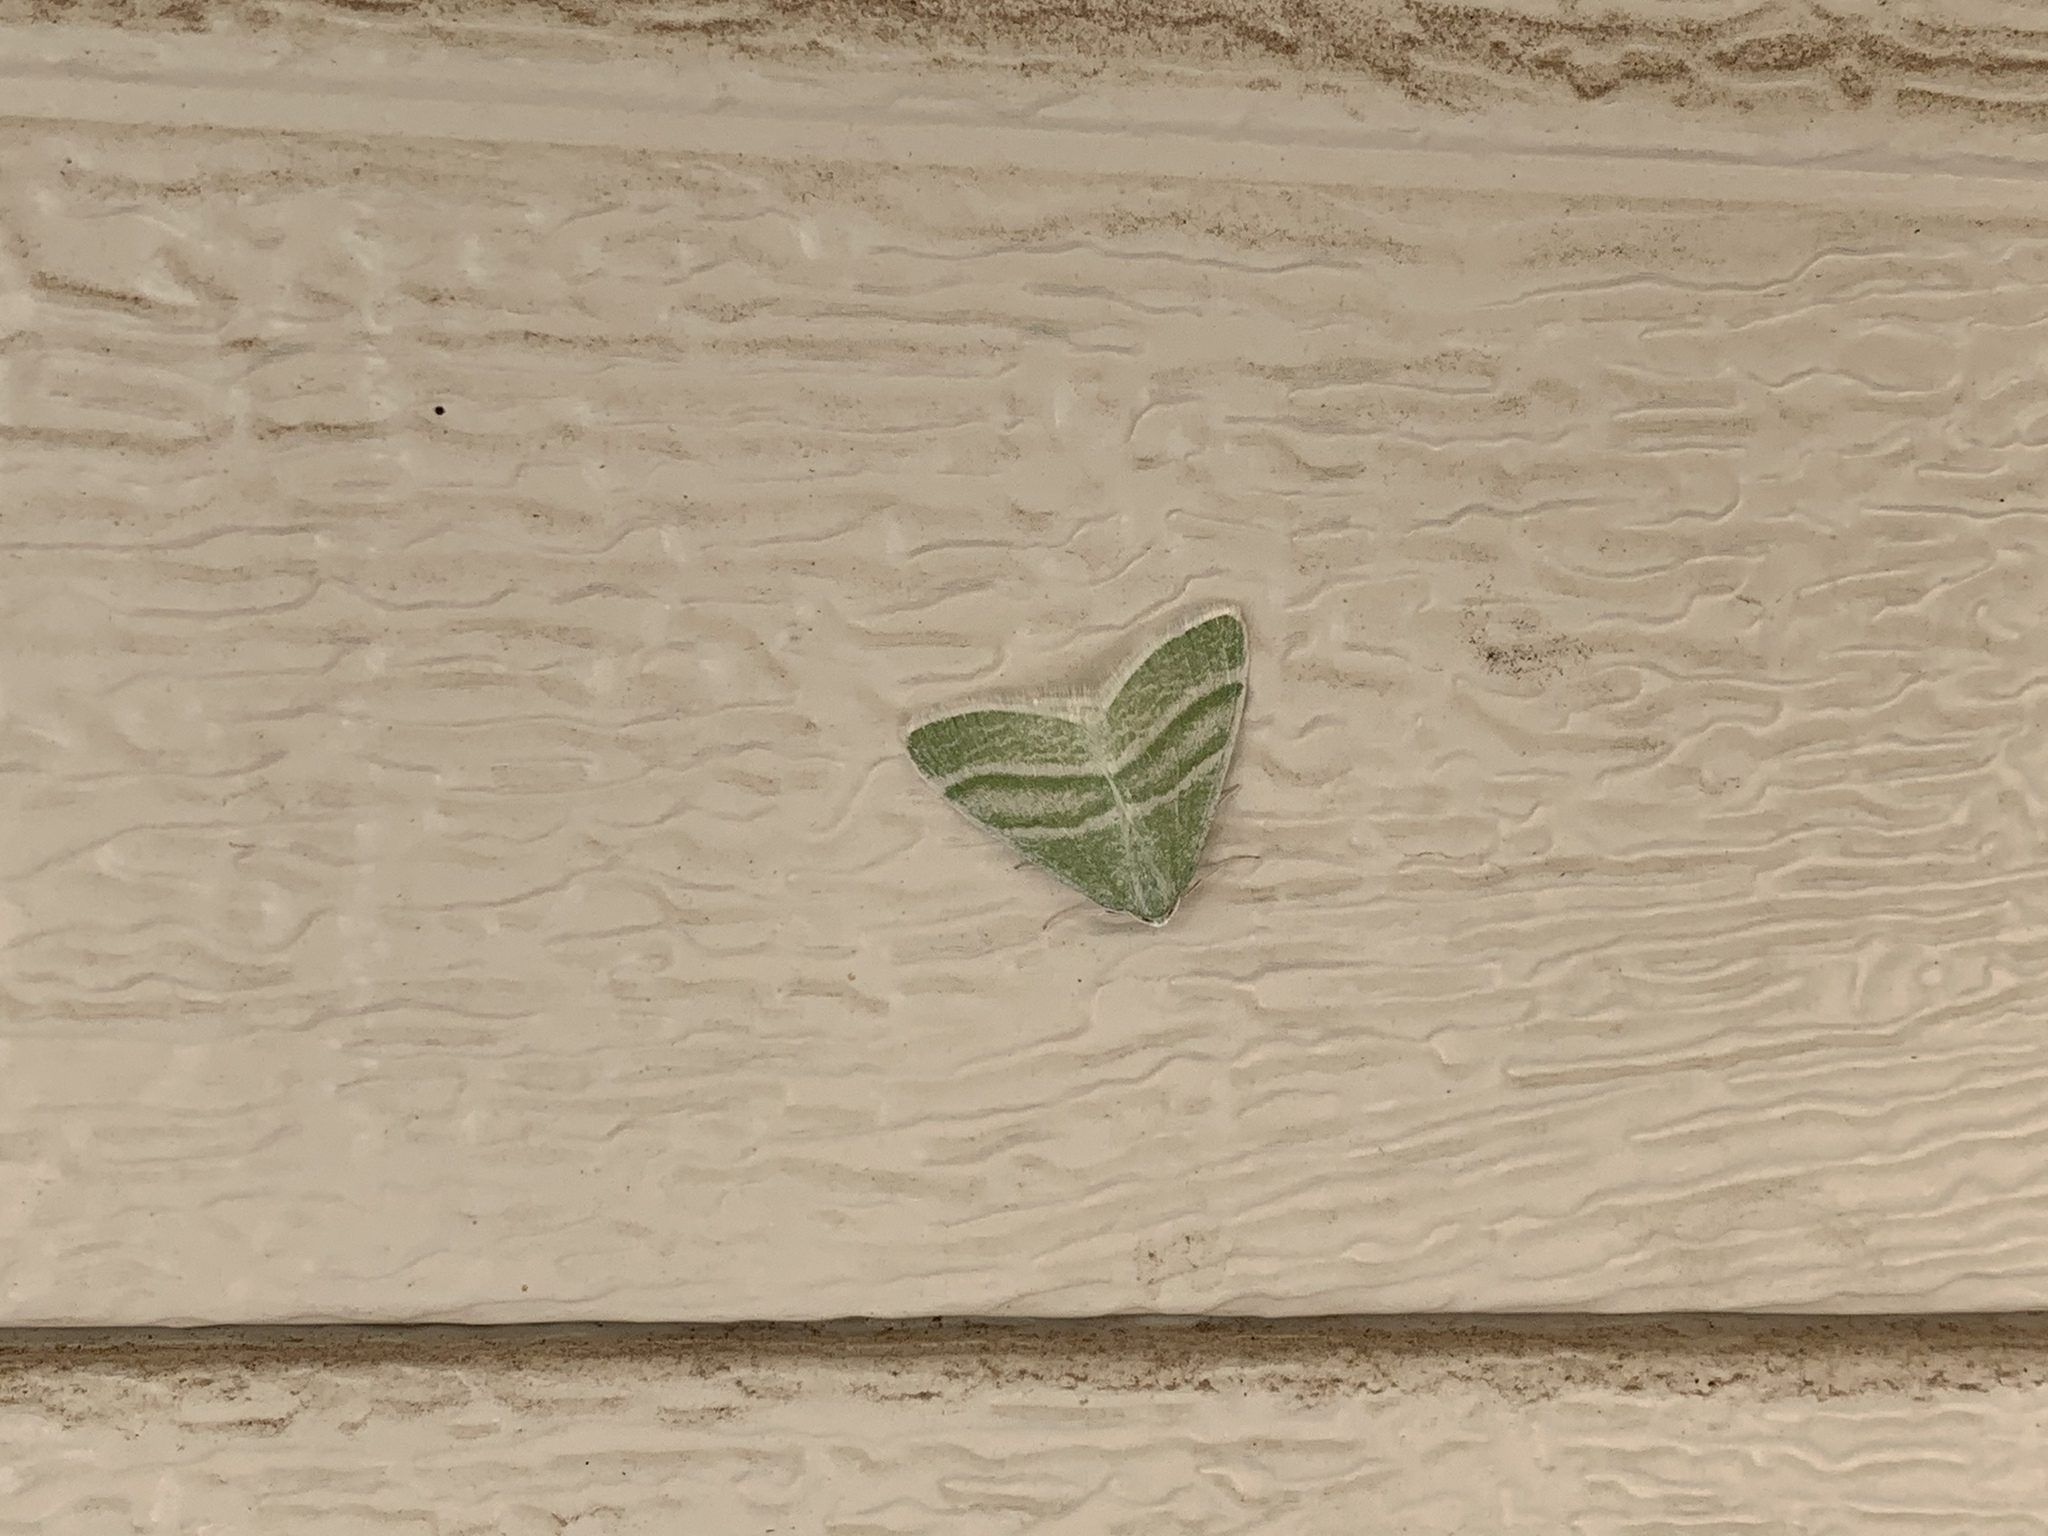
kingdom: Animalia
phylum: Arthropoda
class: Insecta
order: Lepidoptera
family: Geometridae
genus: Nemoria
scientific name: Nemoria diamesa
